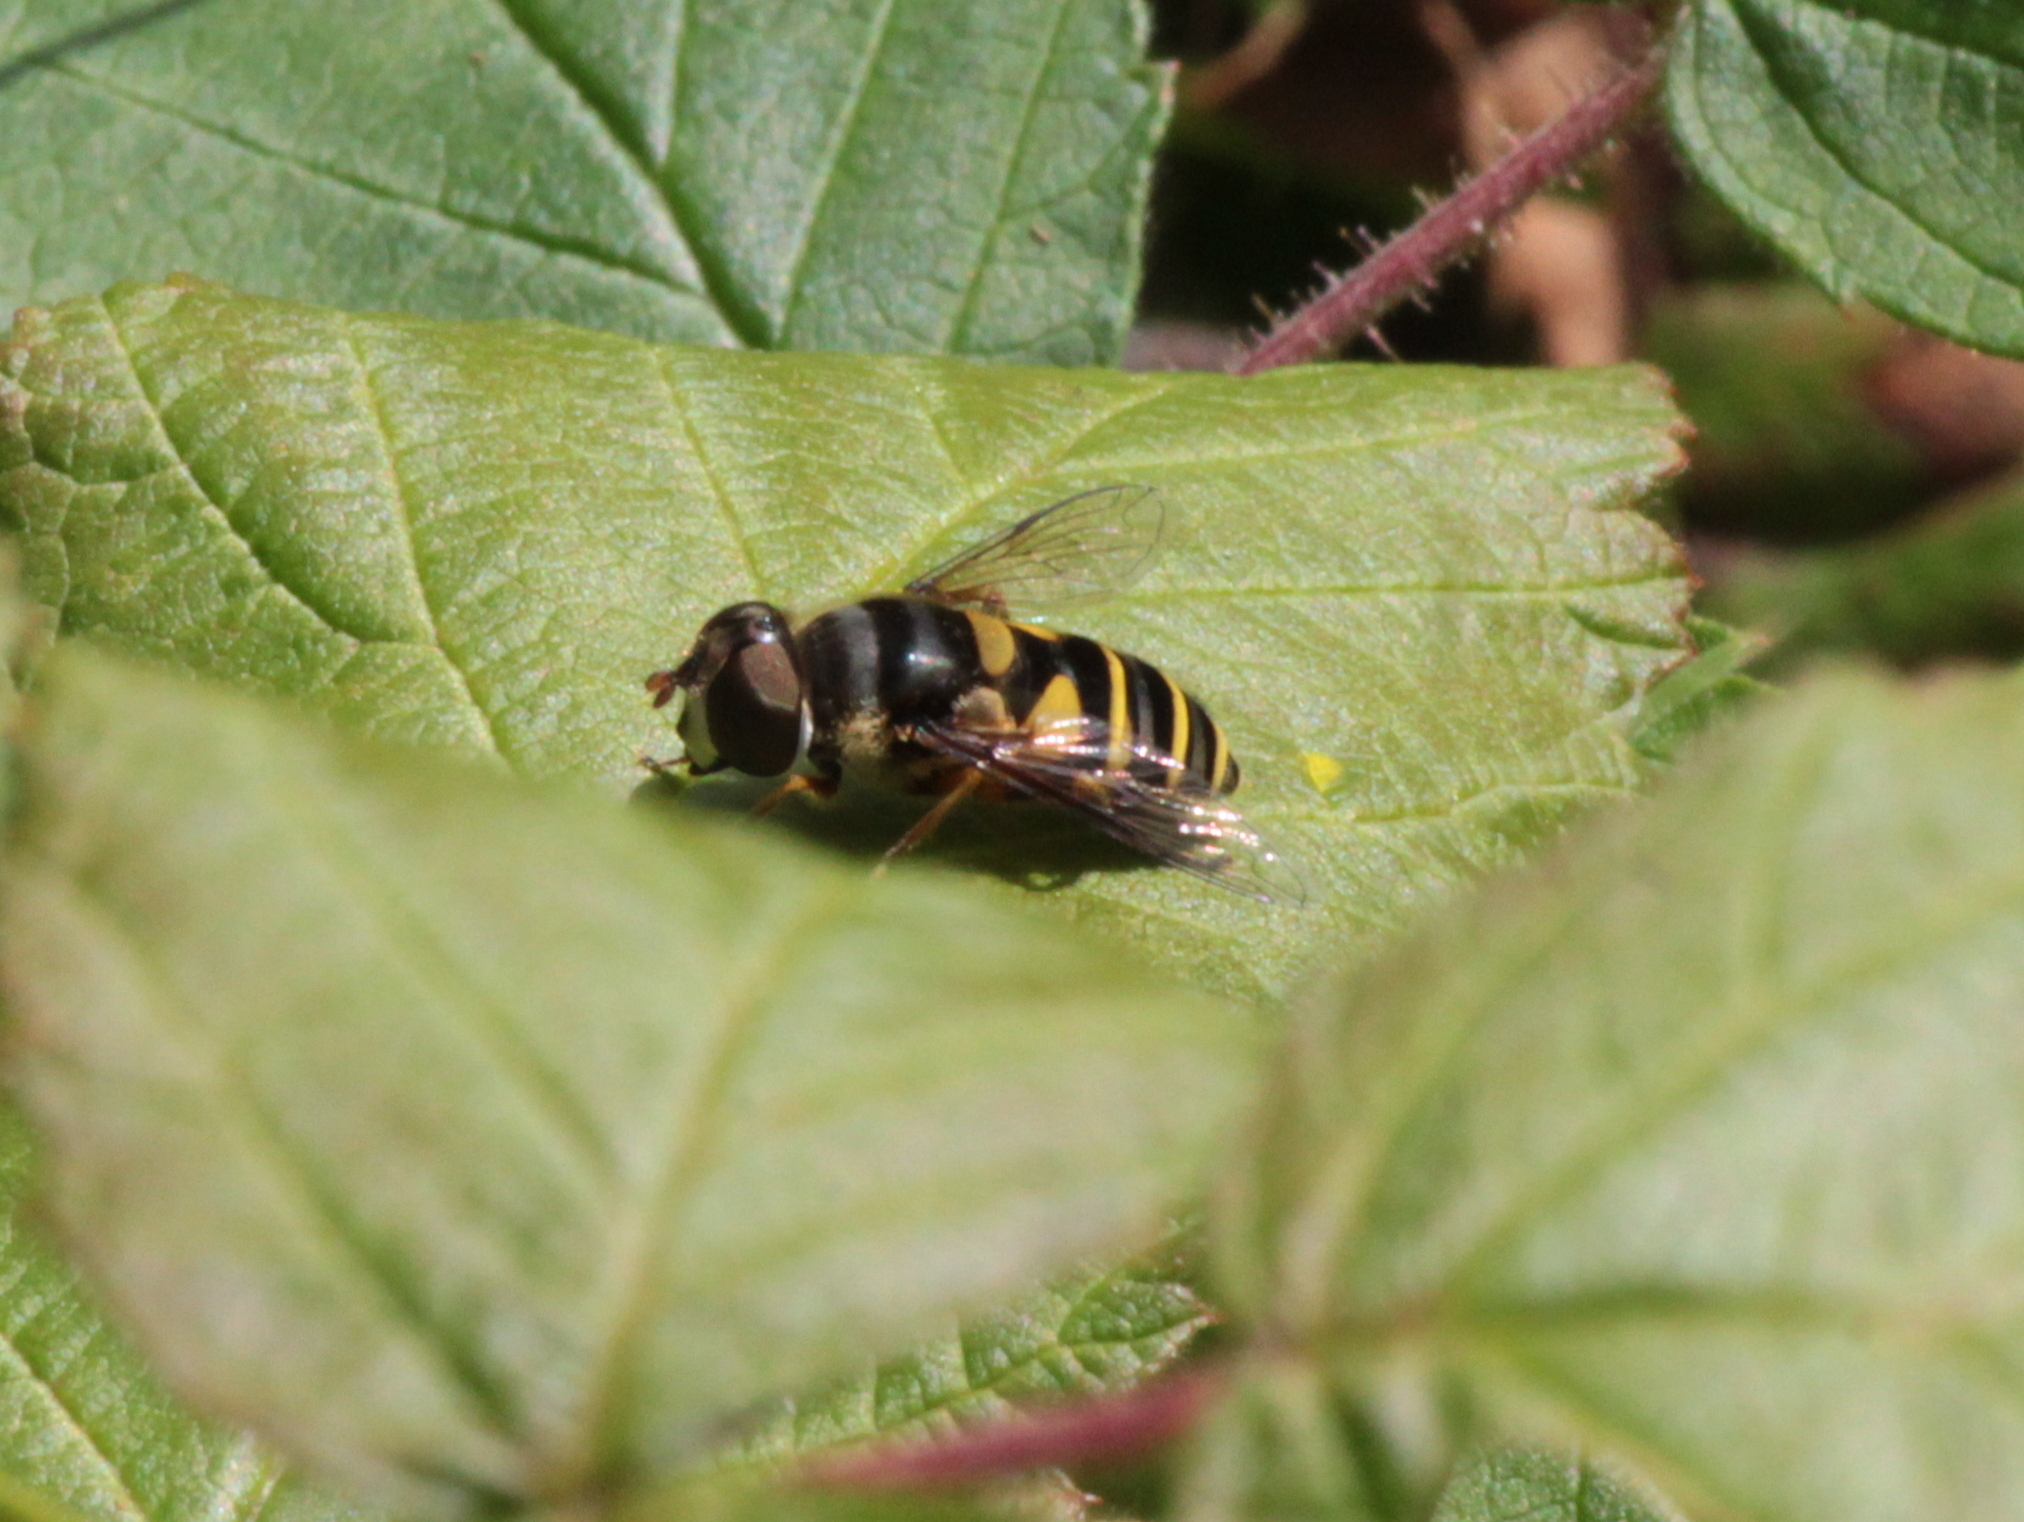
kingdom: Animalia
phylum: Arthropoda
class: Insecta
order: Diptera
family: Syrphidae
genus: Eristalis
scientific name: Eristalis transversa
